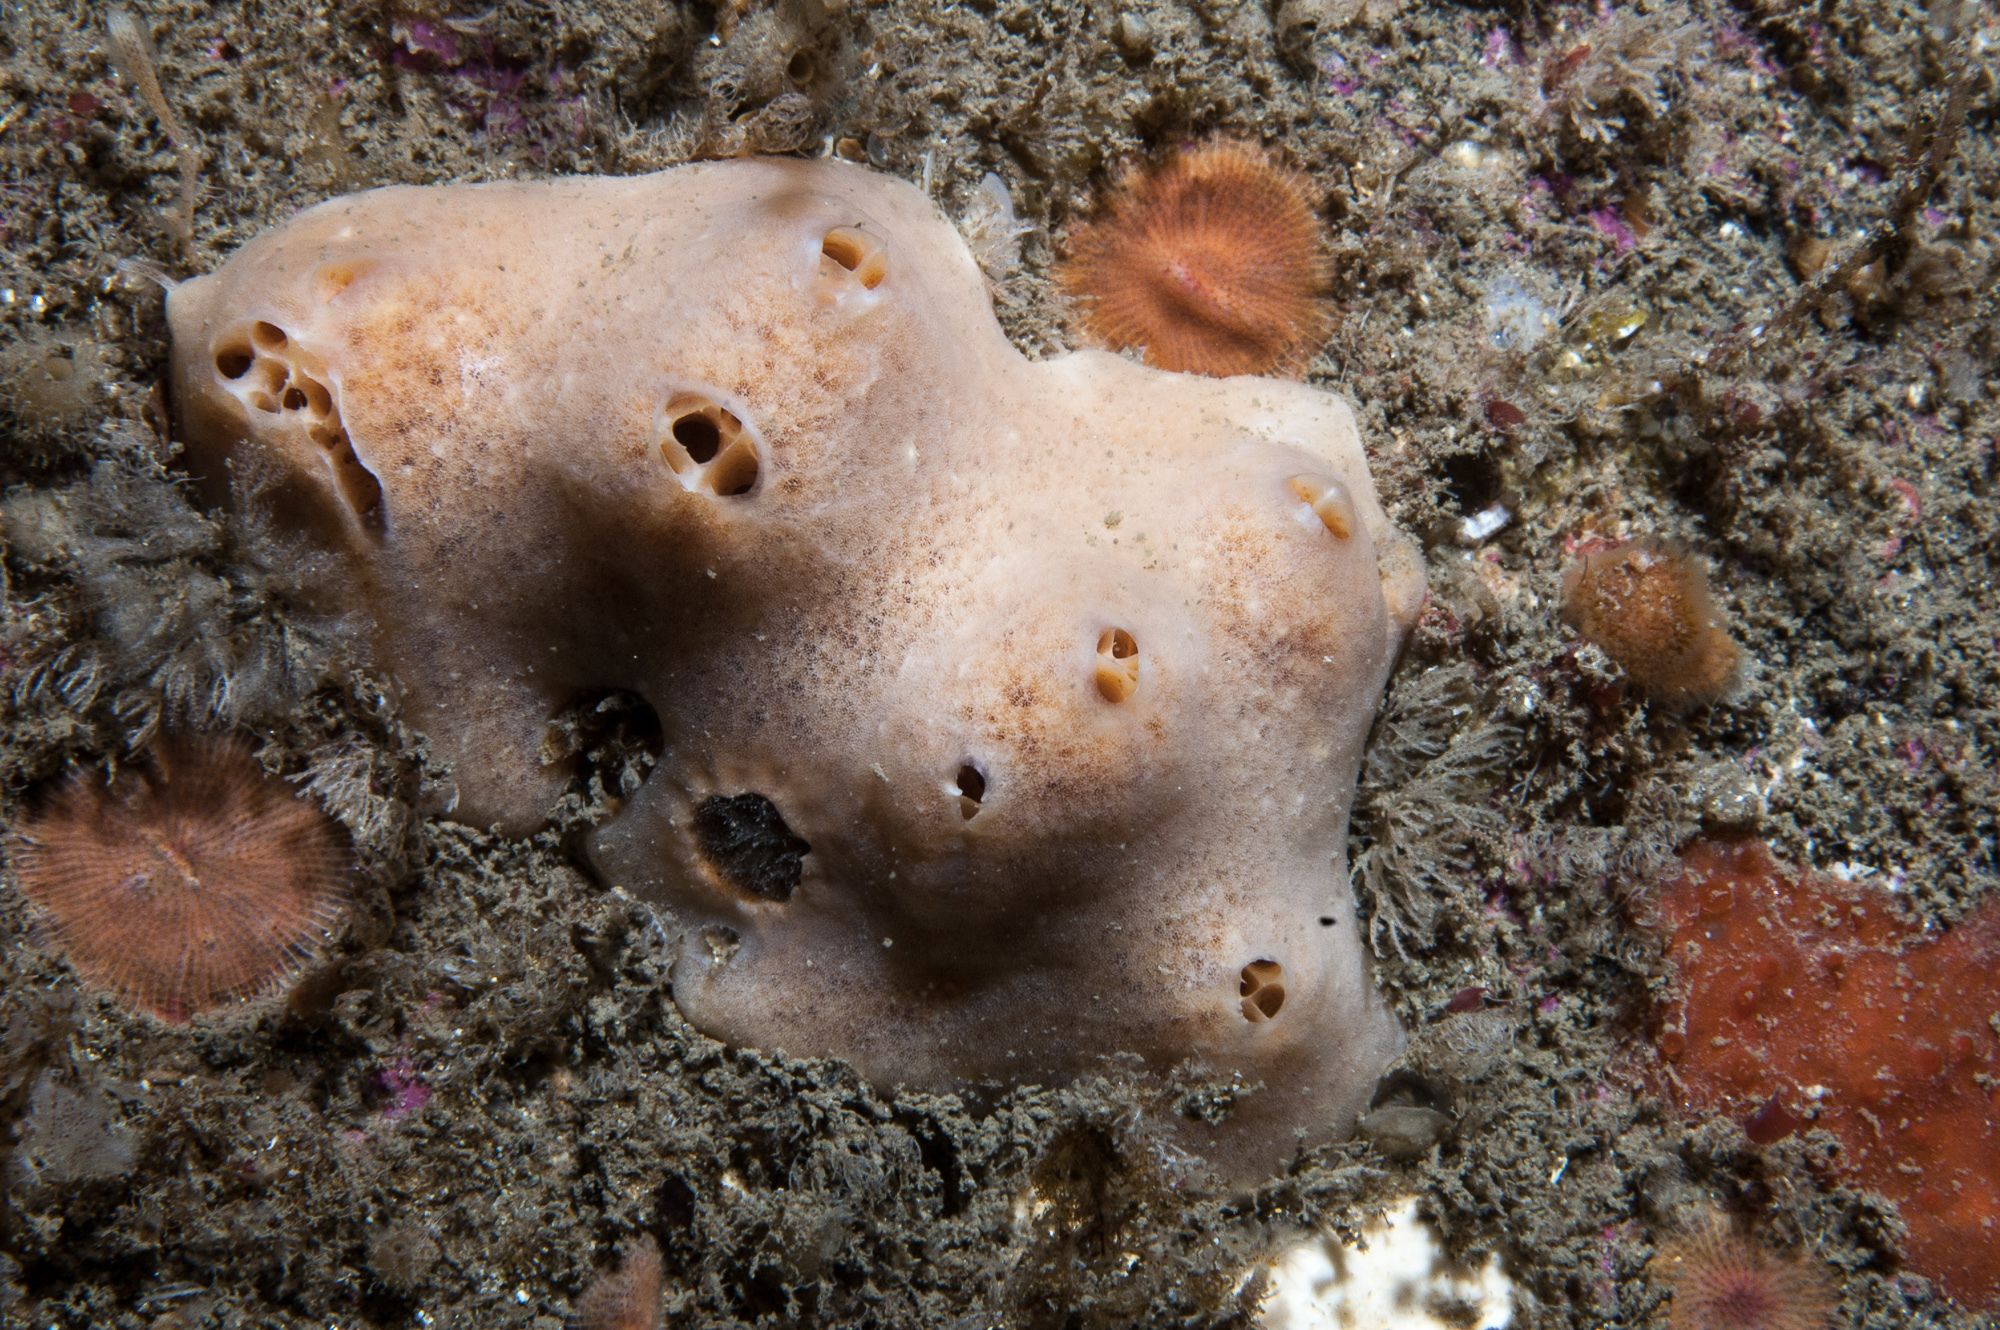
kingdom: Animalia
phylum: Porifera
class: Demospongiae
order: Poecilosclerida
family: Myxillidae
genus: Myxilla
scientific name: Myxilla fimbriata
